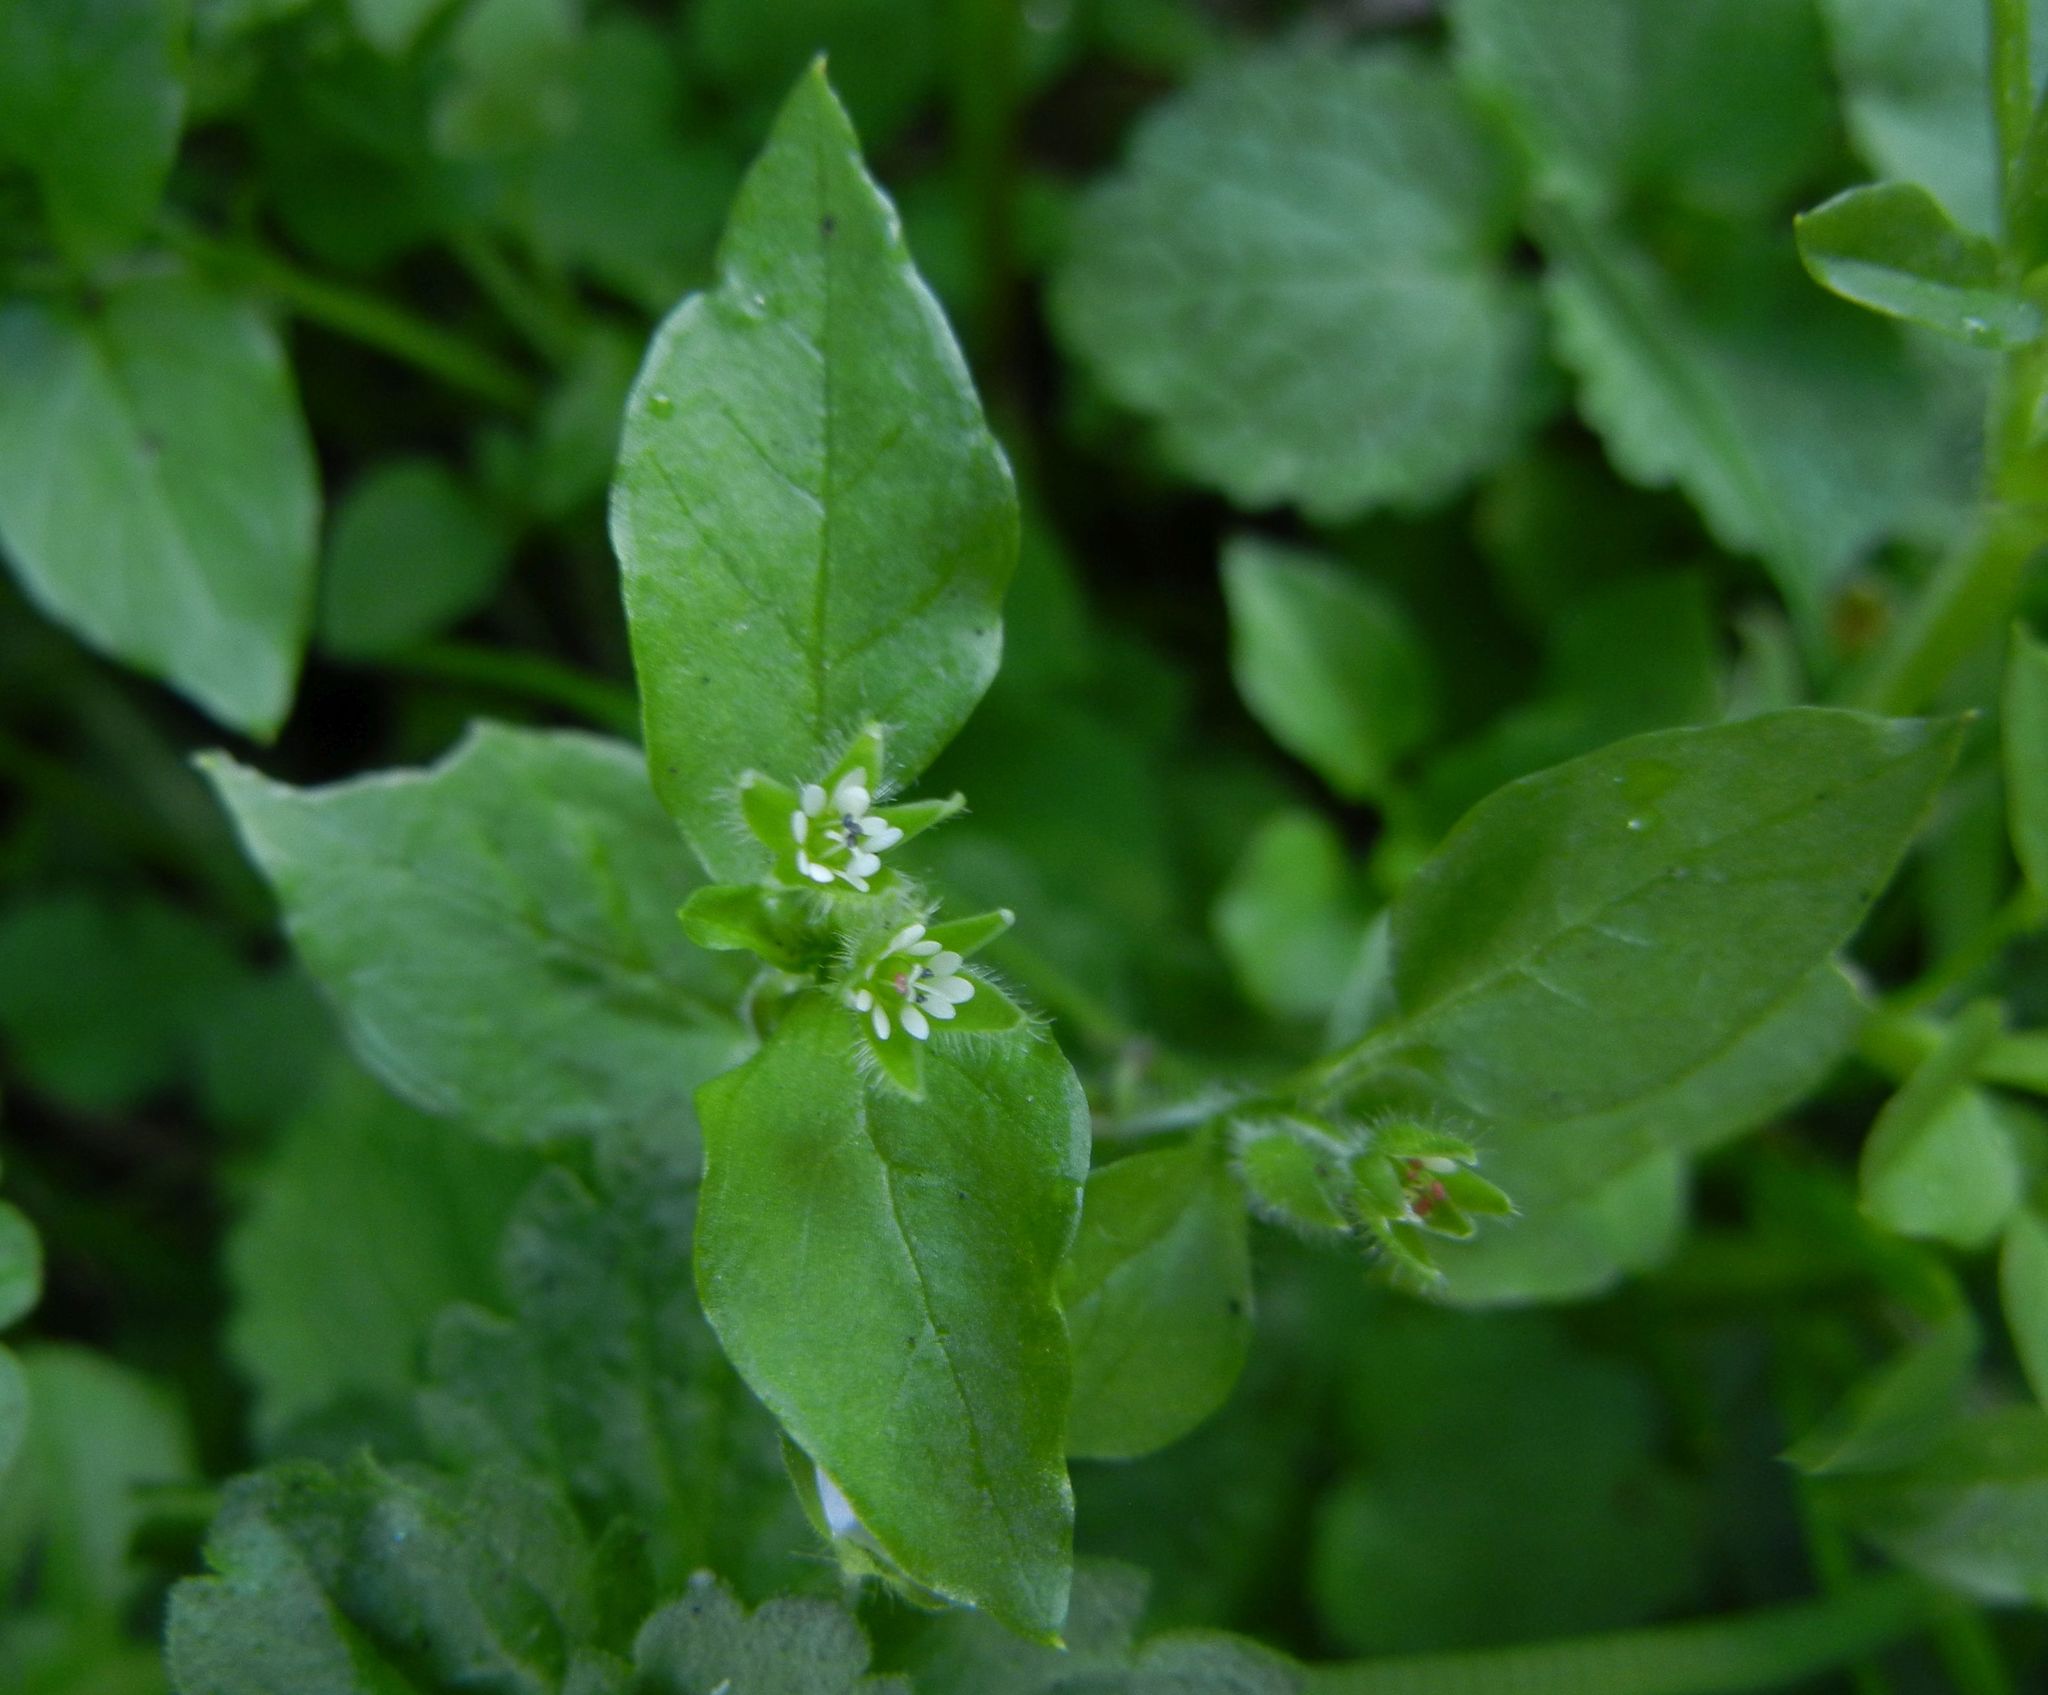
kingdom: Plantae
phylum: Tracheophyta
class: Magnoliopsida
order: Caryophyllales
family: Caryophyllaceae
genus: Stellaria
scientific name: Stellaria media
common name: Common chickweed
